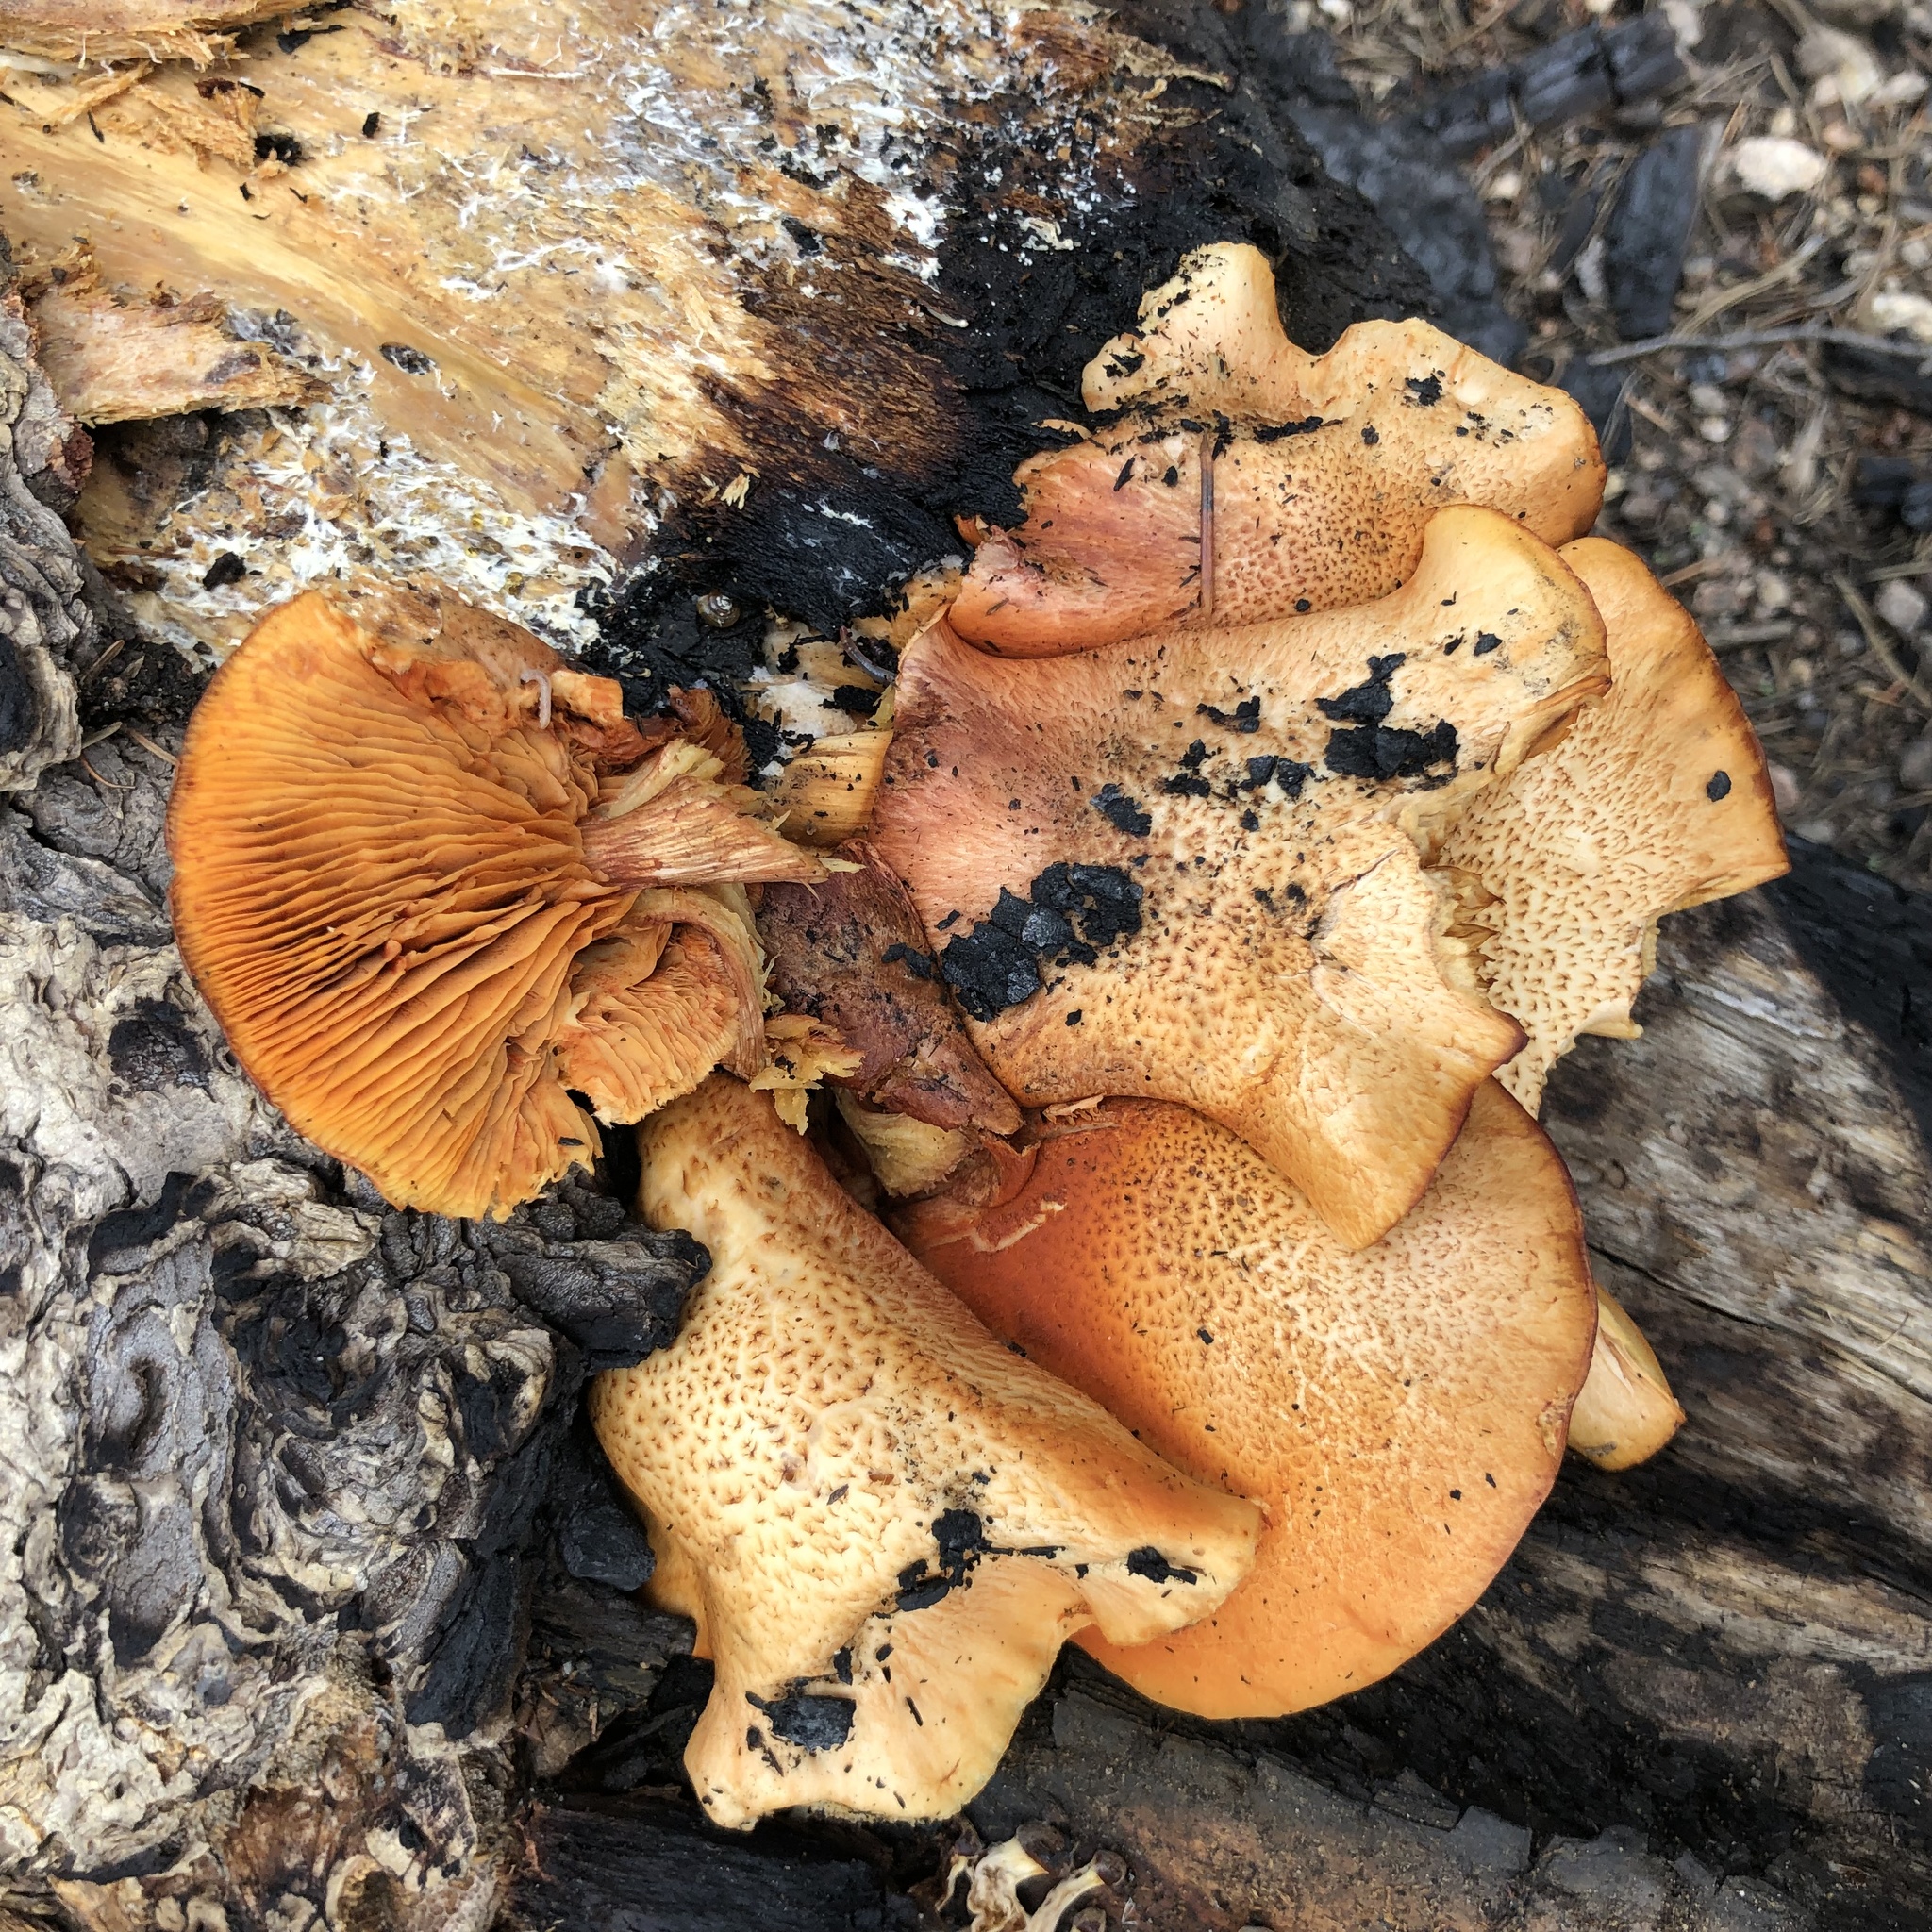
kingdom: Fungi
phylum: Basidiomycota
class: Agaricomycetes
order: Agaricales
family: Hymenogastraceae
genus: Gymnopilus
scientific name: Gymnopilus luteofolius
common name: Yellow-gilled gymnopilus
